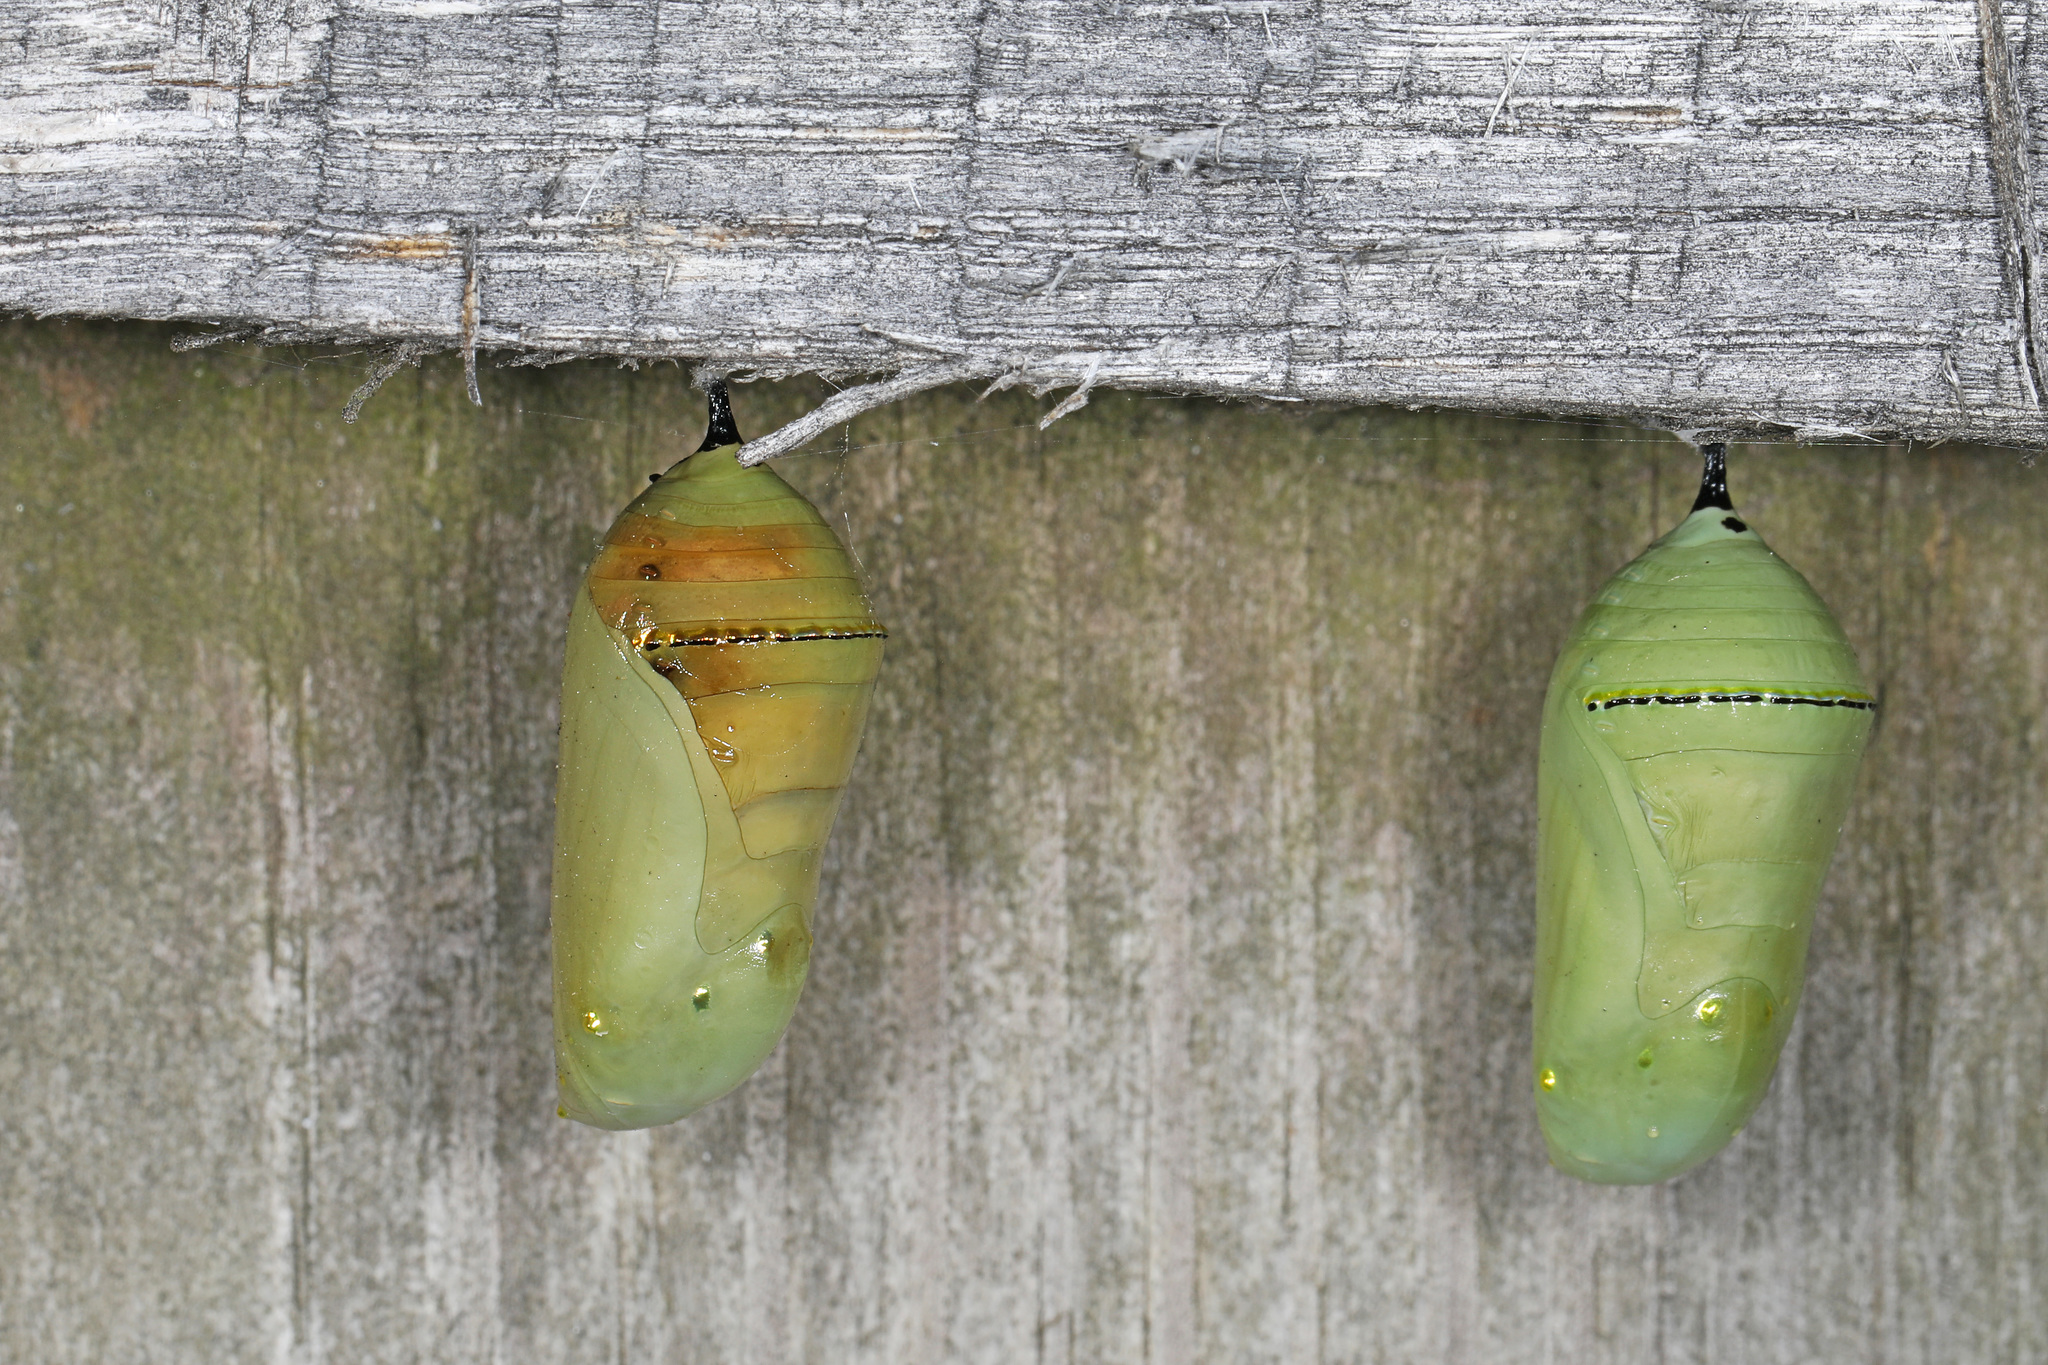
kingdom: Animalia
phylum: Arthropoda
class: Insecta
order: Lepidoptera
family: Nymphalidae
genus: Danaus
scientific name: Danaus plexippus
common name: Monarch
